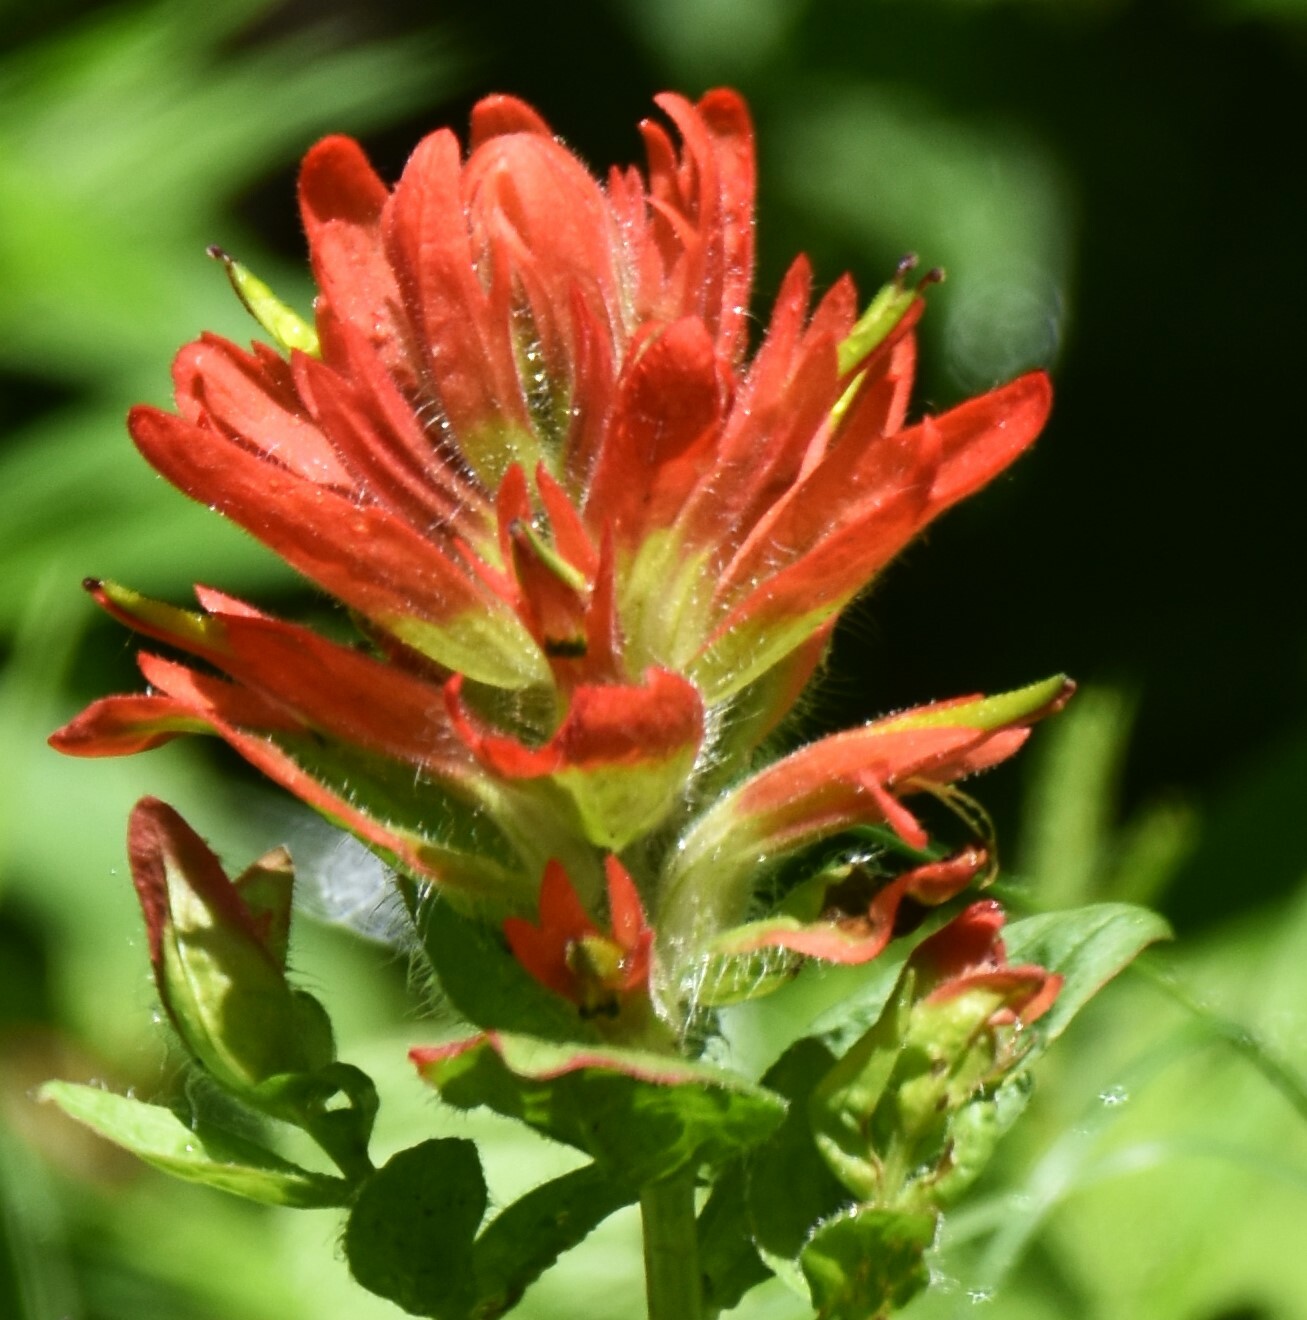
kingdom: Plantae
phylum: Tracheophyta
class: Magnoliopsida
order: Lamiales
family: Orobanchaceae
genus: Castilleja
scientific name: Castilleja miniata
